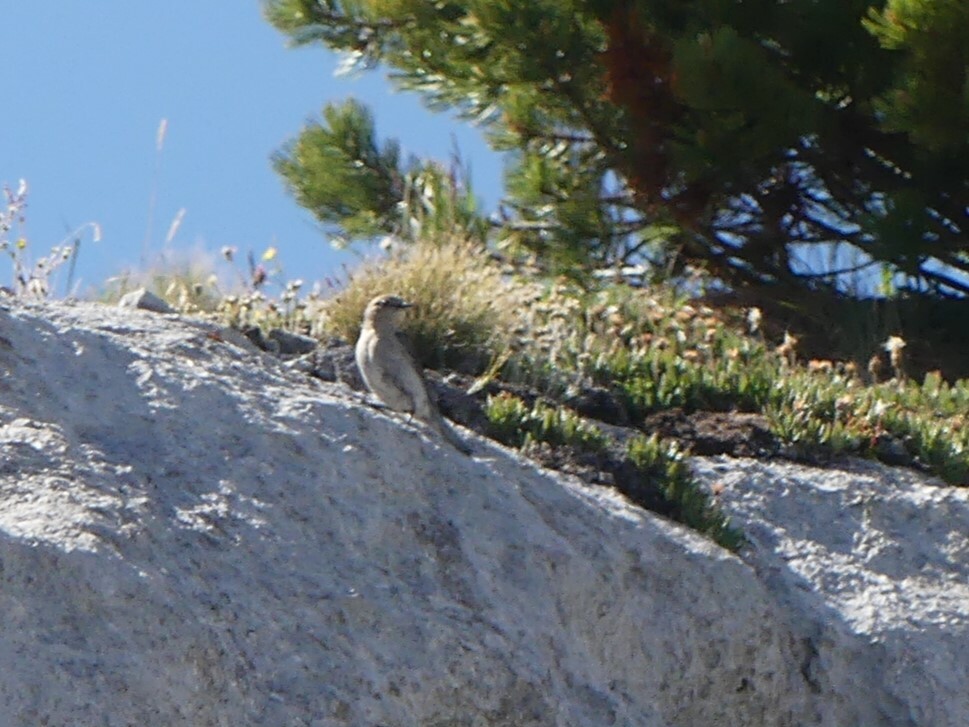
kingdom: Animalia
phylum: Chordata
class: Aves
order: Passeriformes
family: Turdidae
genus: Sialia
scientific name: Sialia currucoides
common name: Mountain bluebird
